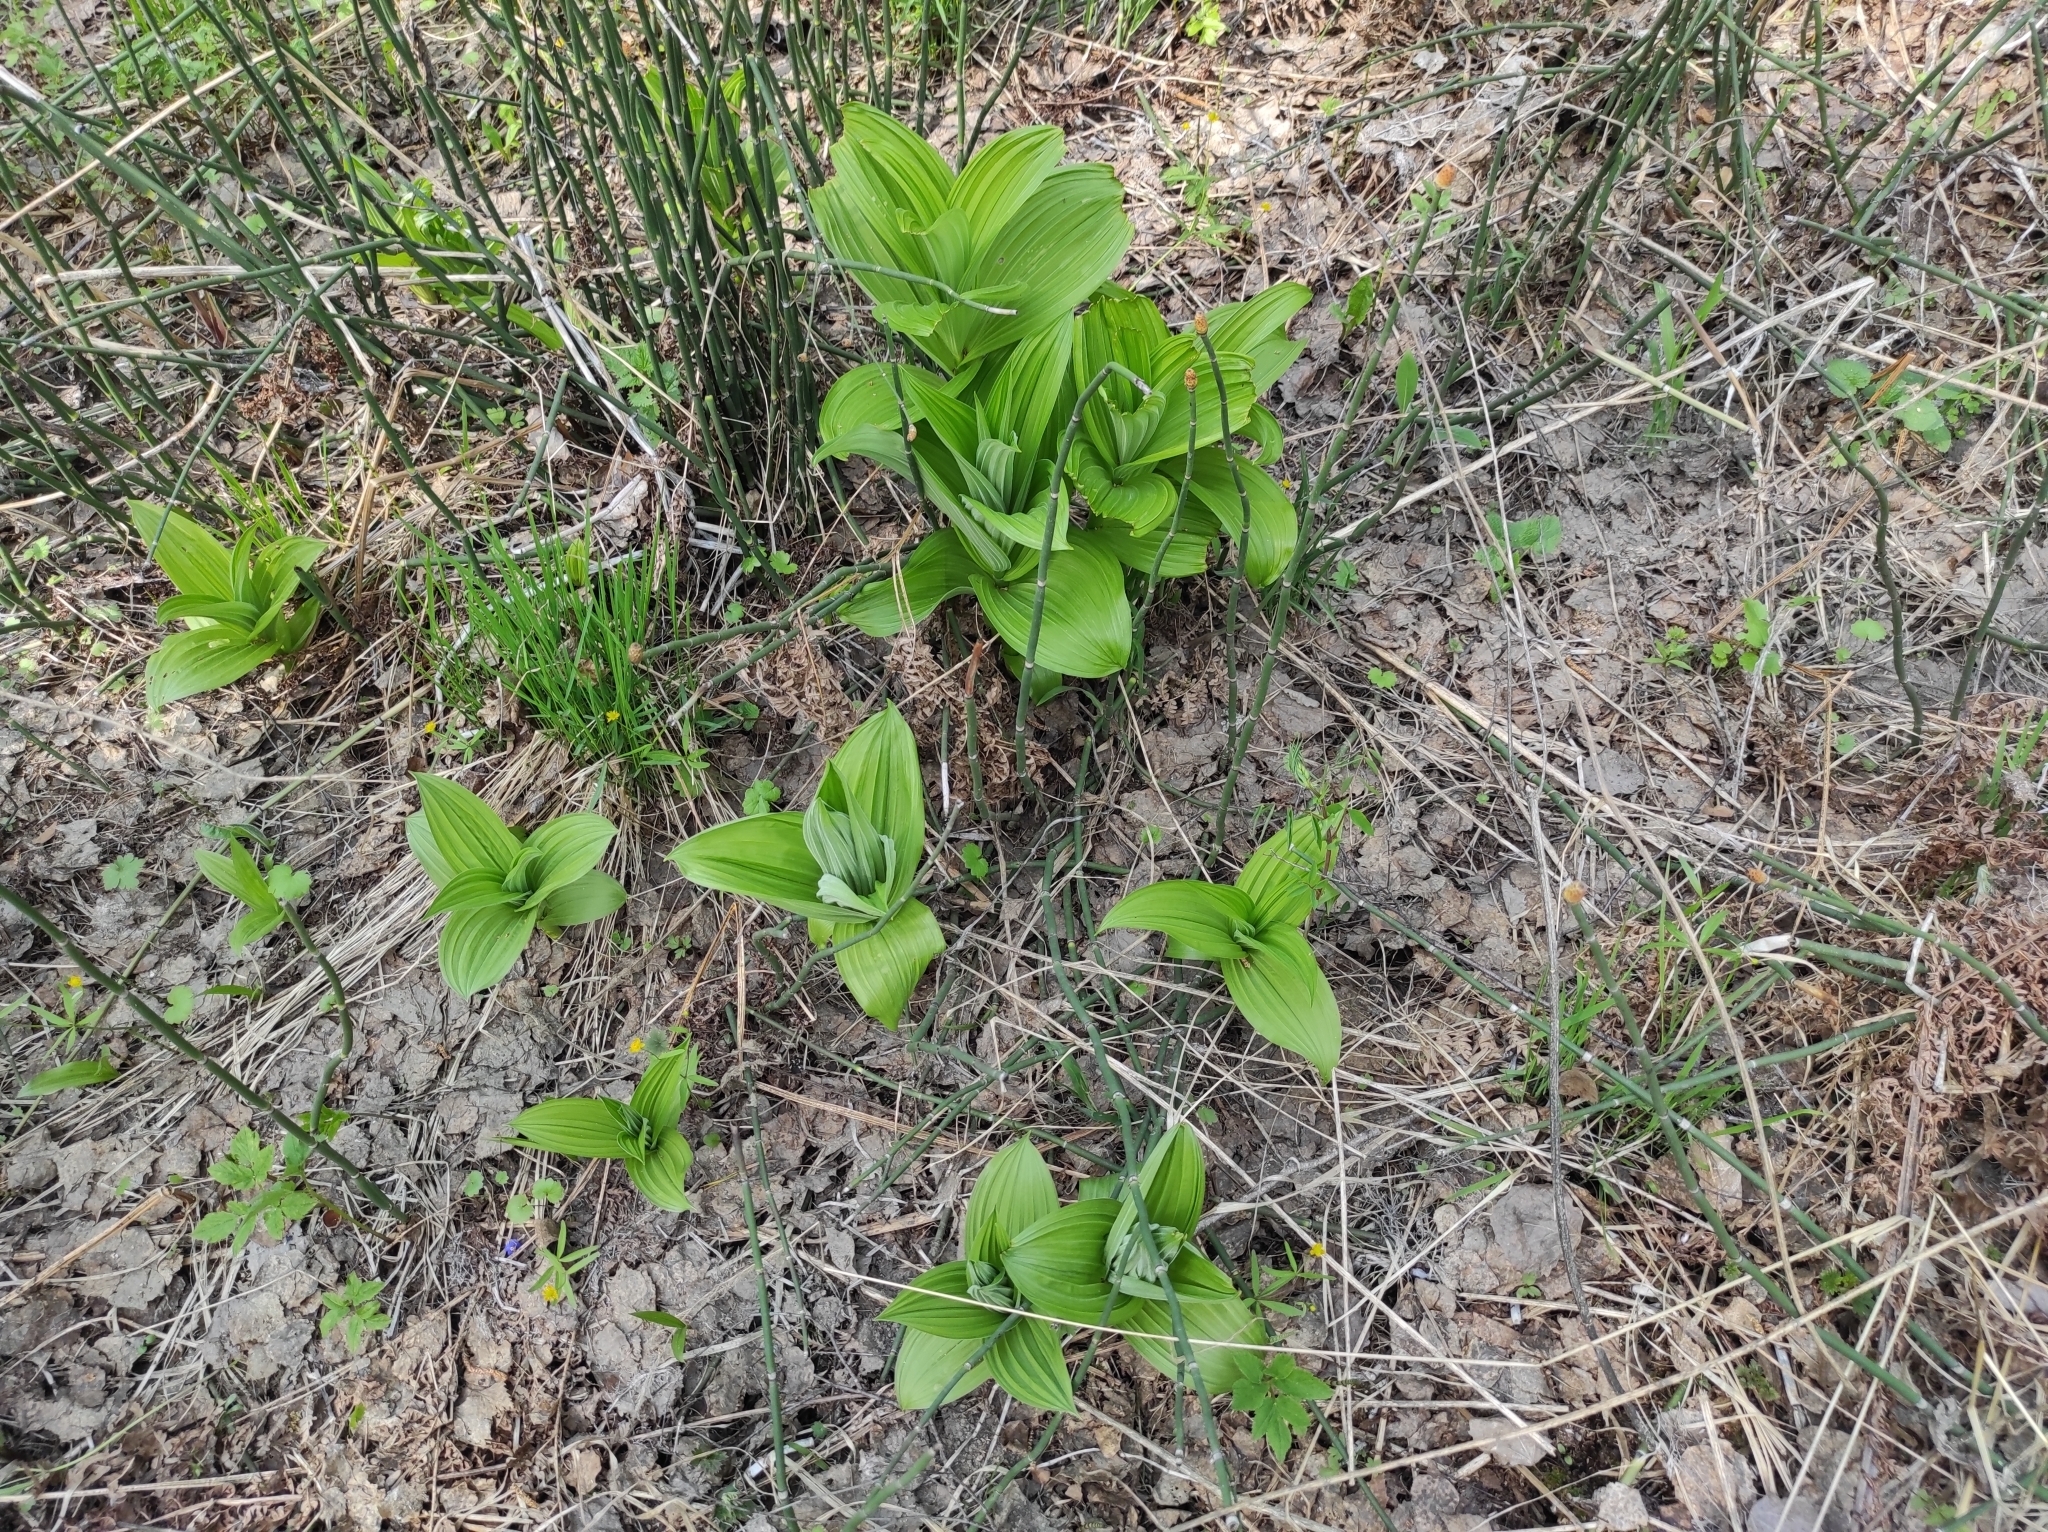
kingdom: Plantae
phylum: Tracheophyta
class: Polypodiopsida
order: Equisetales
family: Equisetaceae
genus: Equisetum
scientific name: Equisetum hyemale
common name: Rough horsetail
